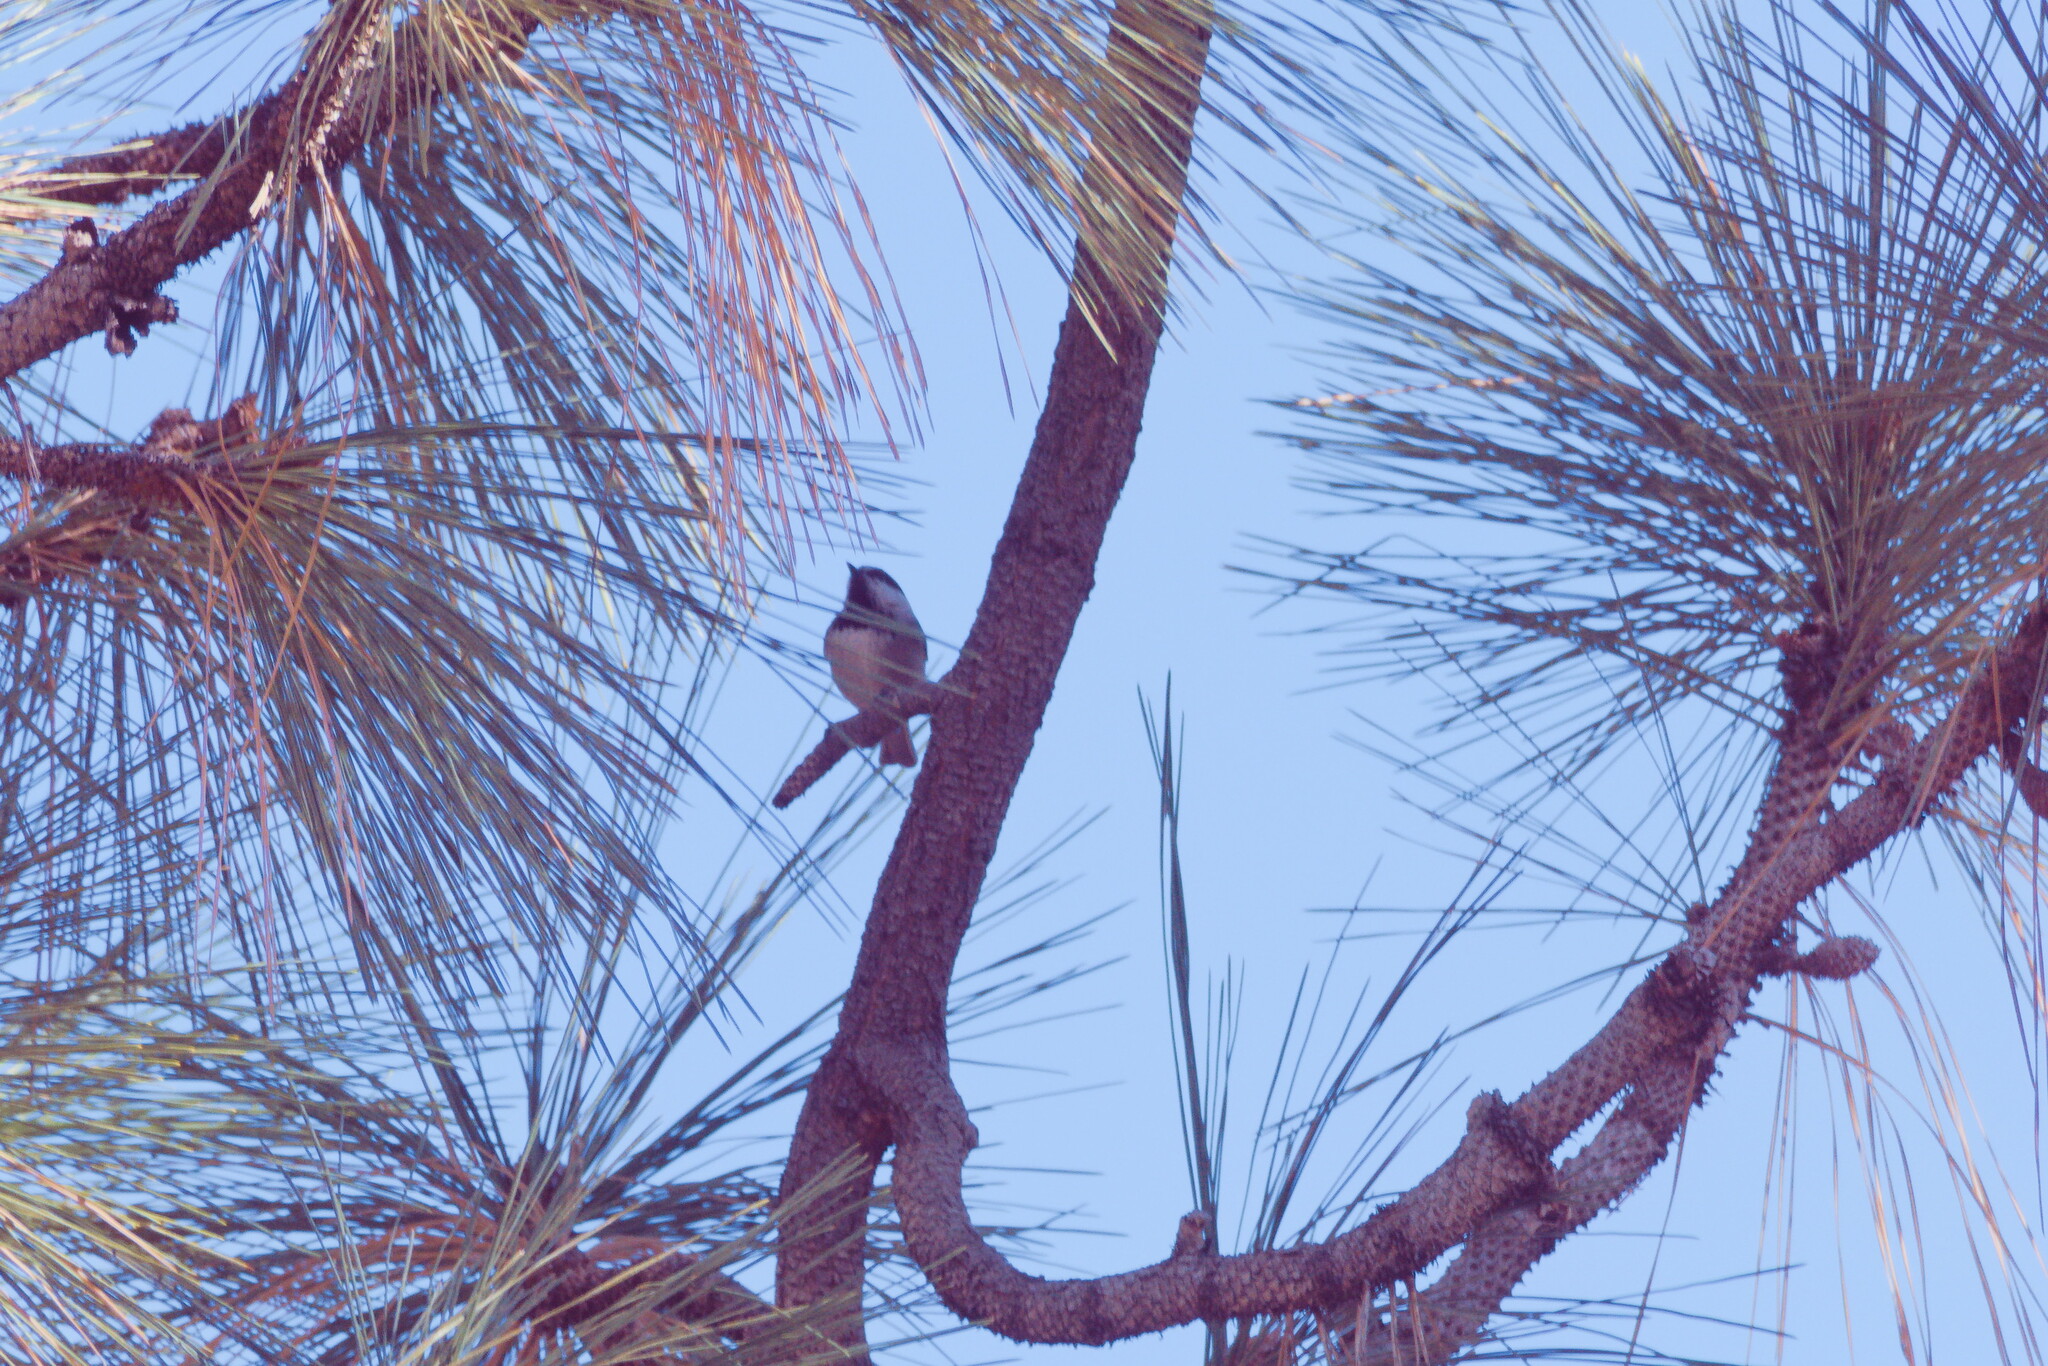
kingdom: Animalia
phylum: Chordata
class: Aves
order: Passeriformes
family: Paridae
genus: Poecile
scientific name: Poecile gambeli
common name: Mountain chickadee
